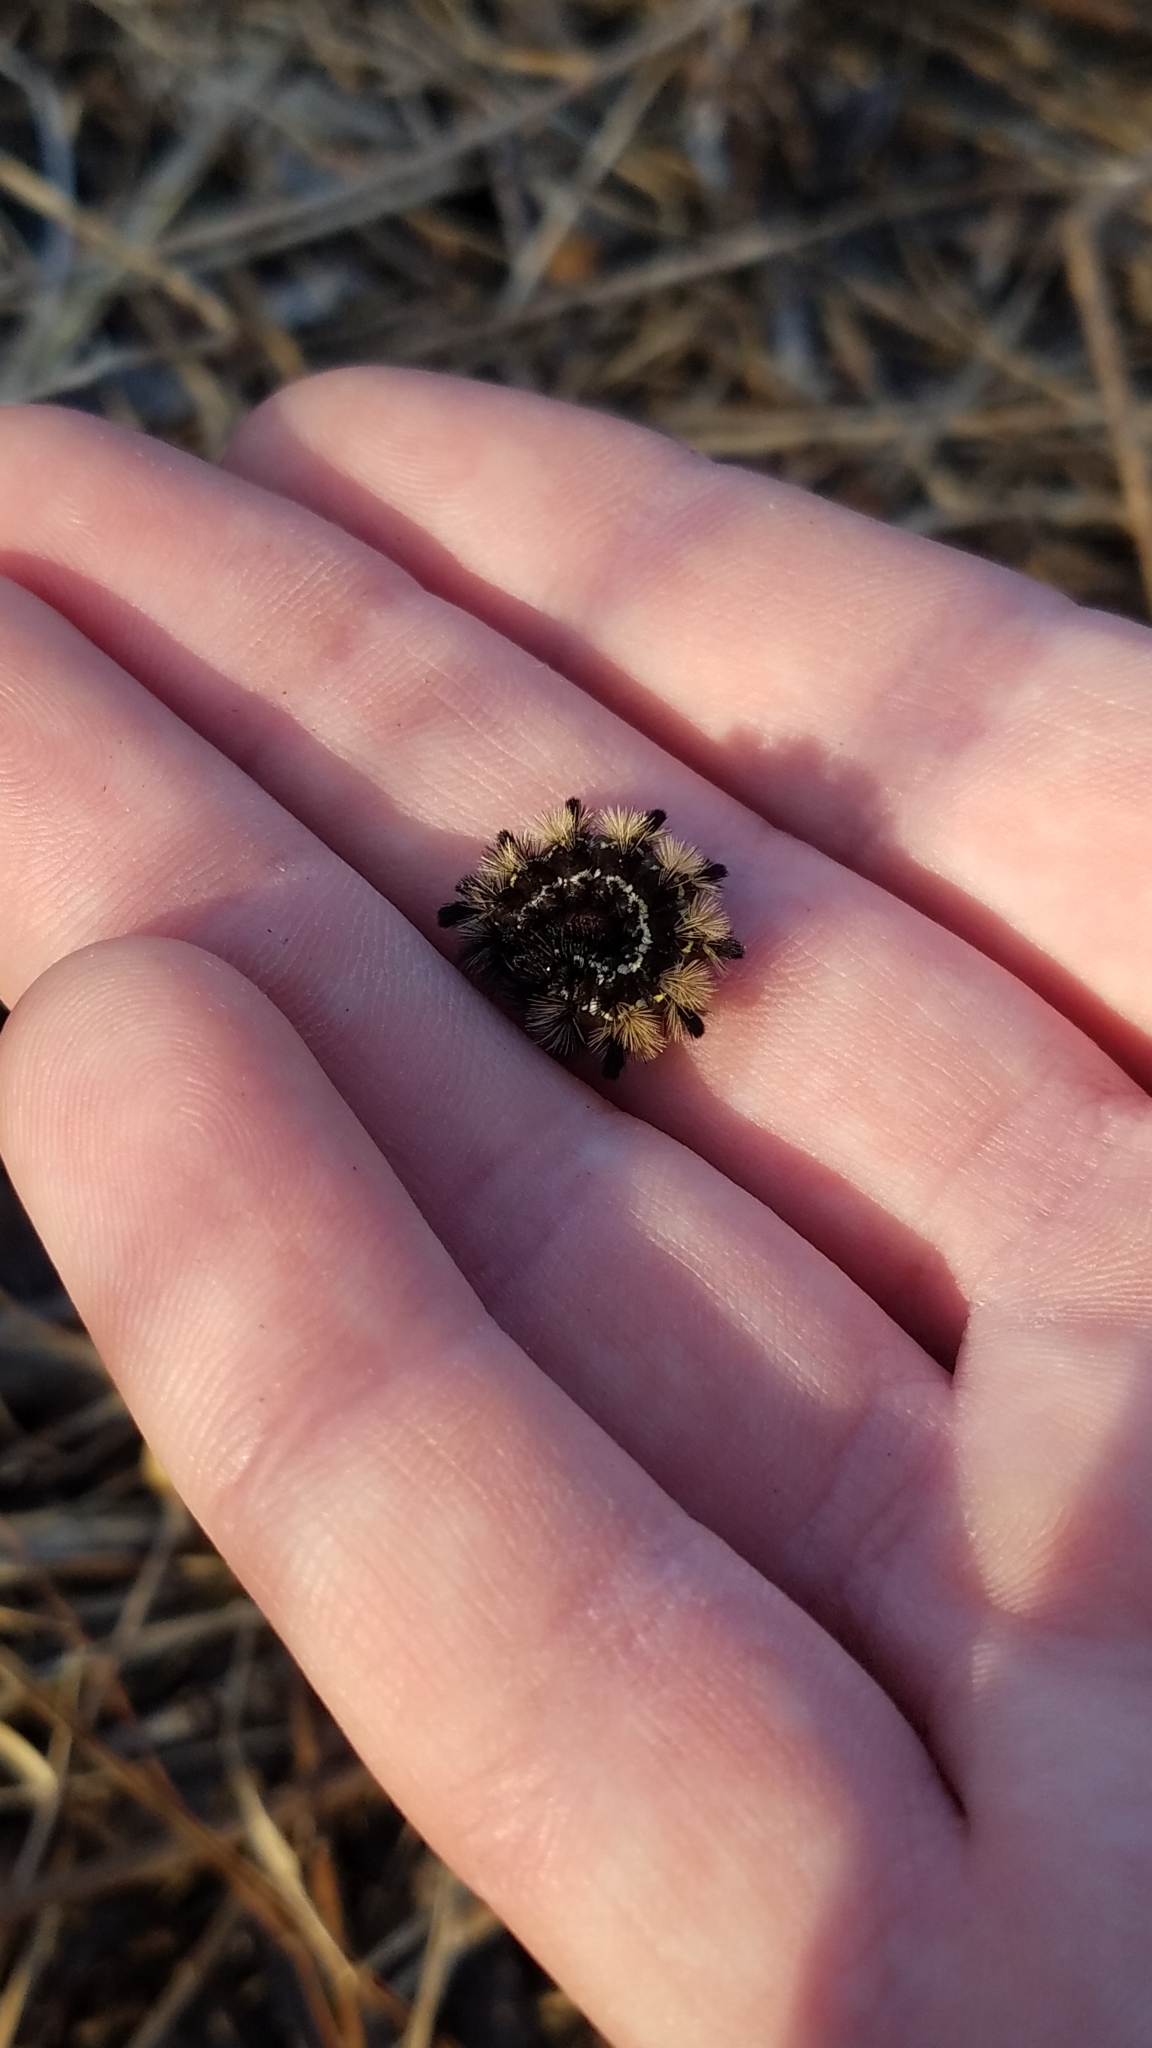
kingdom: Animalia
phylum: Arthropoda
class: Insecta
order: Lepidoptera
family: Erebidae
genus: Ctenucha
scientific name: Ctenucha virginica
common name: Virginia ctenucha moth
